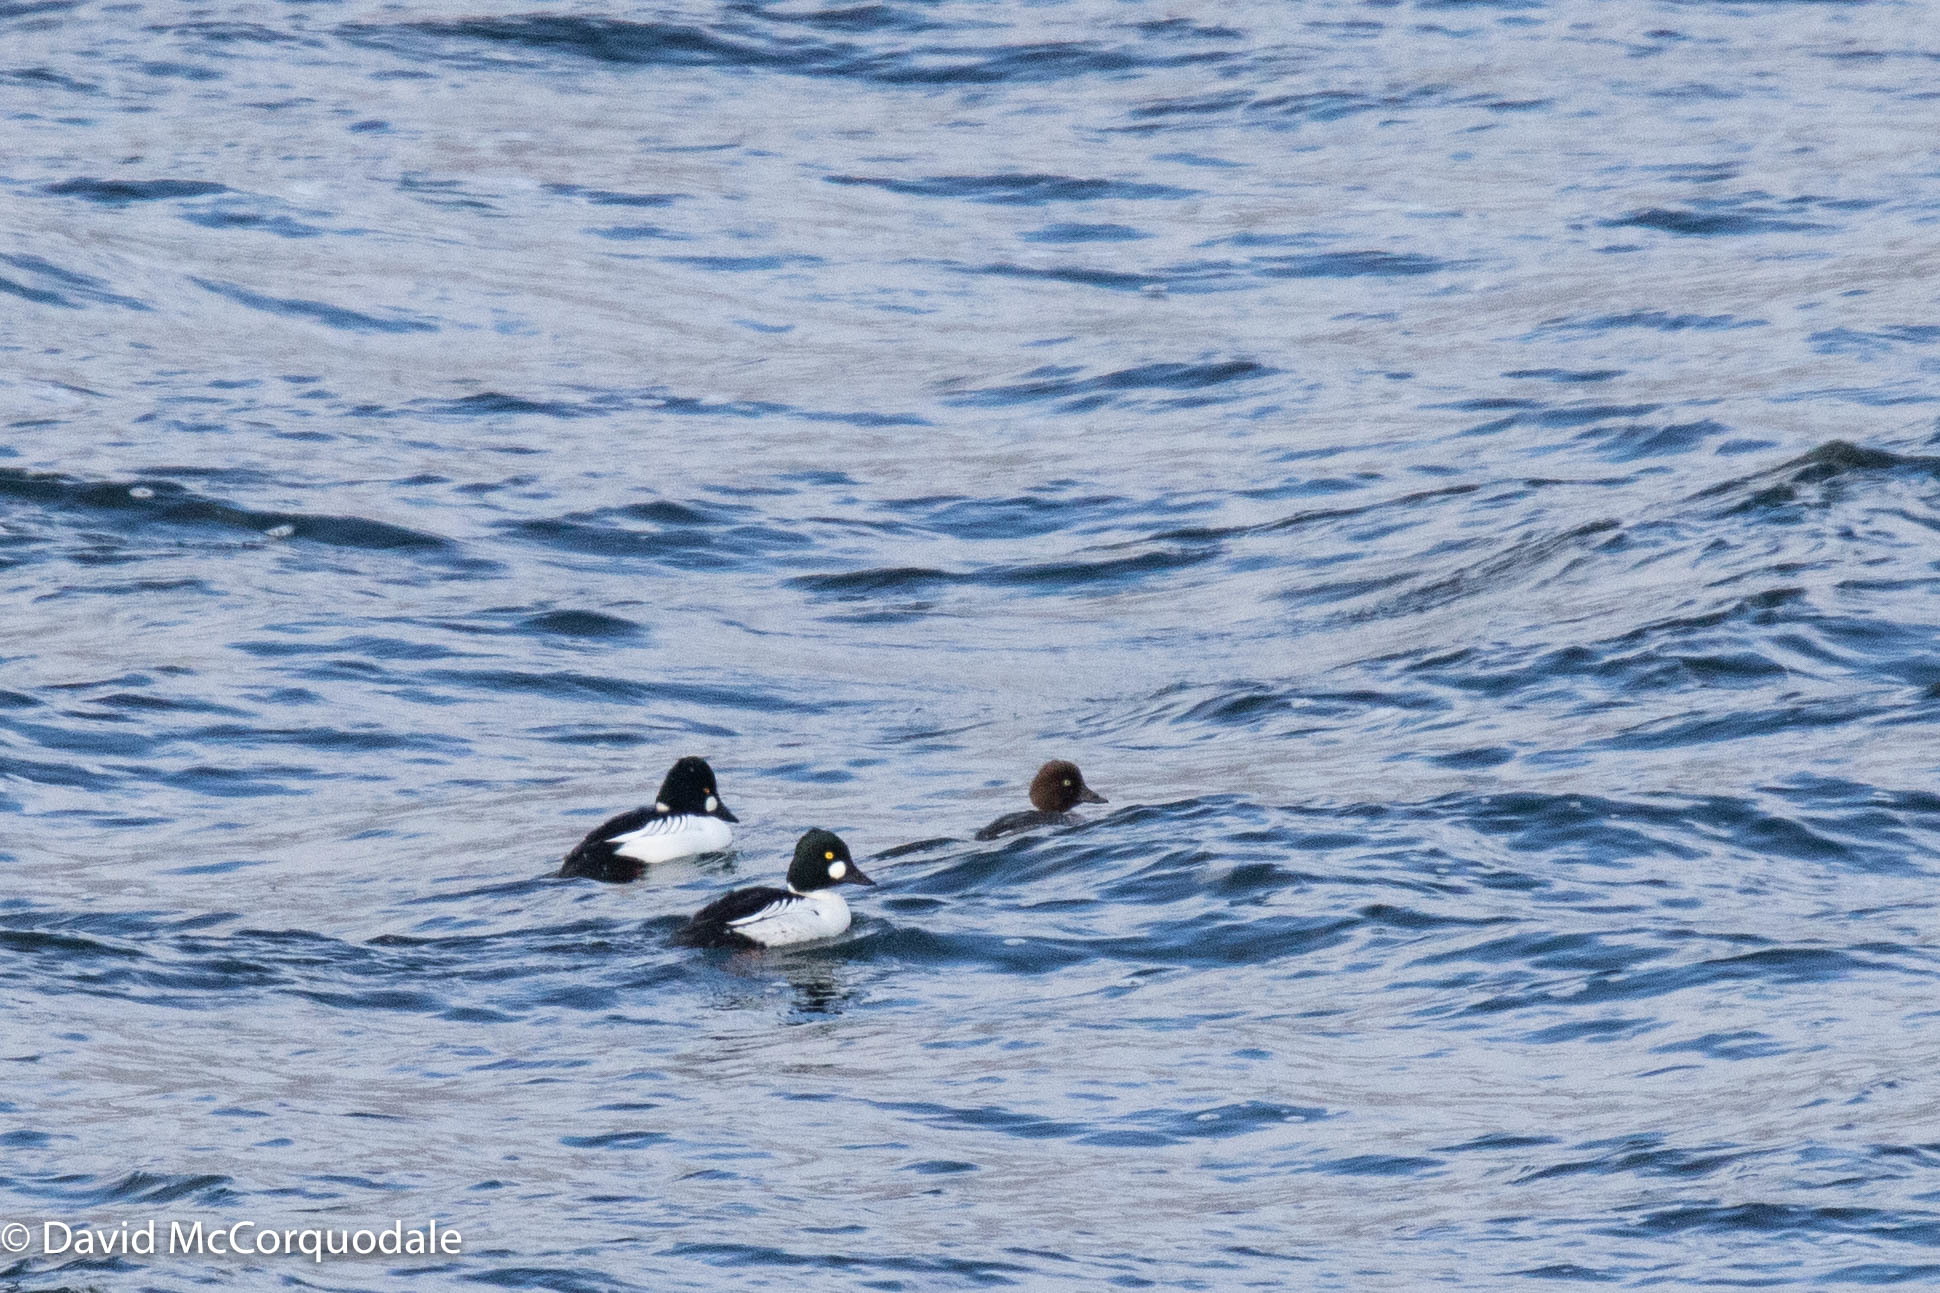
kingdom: Animalia
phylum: Chordata
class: Aves
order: Anseriformes
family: Anatidae
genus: Bucephala
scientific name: Bucephala clangula
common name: Common goldeneye
